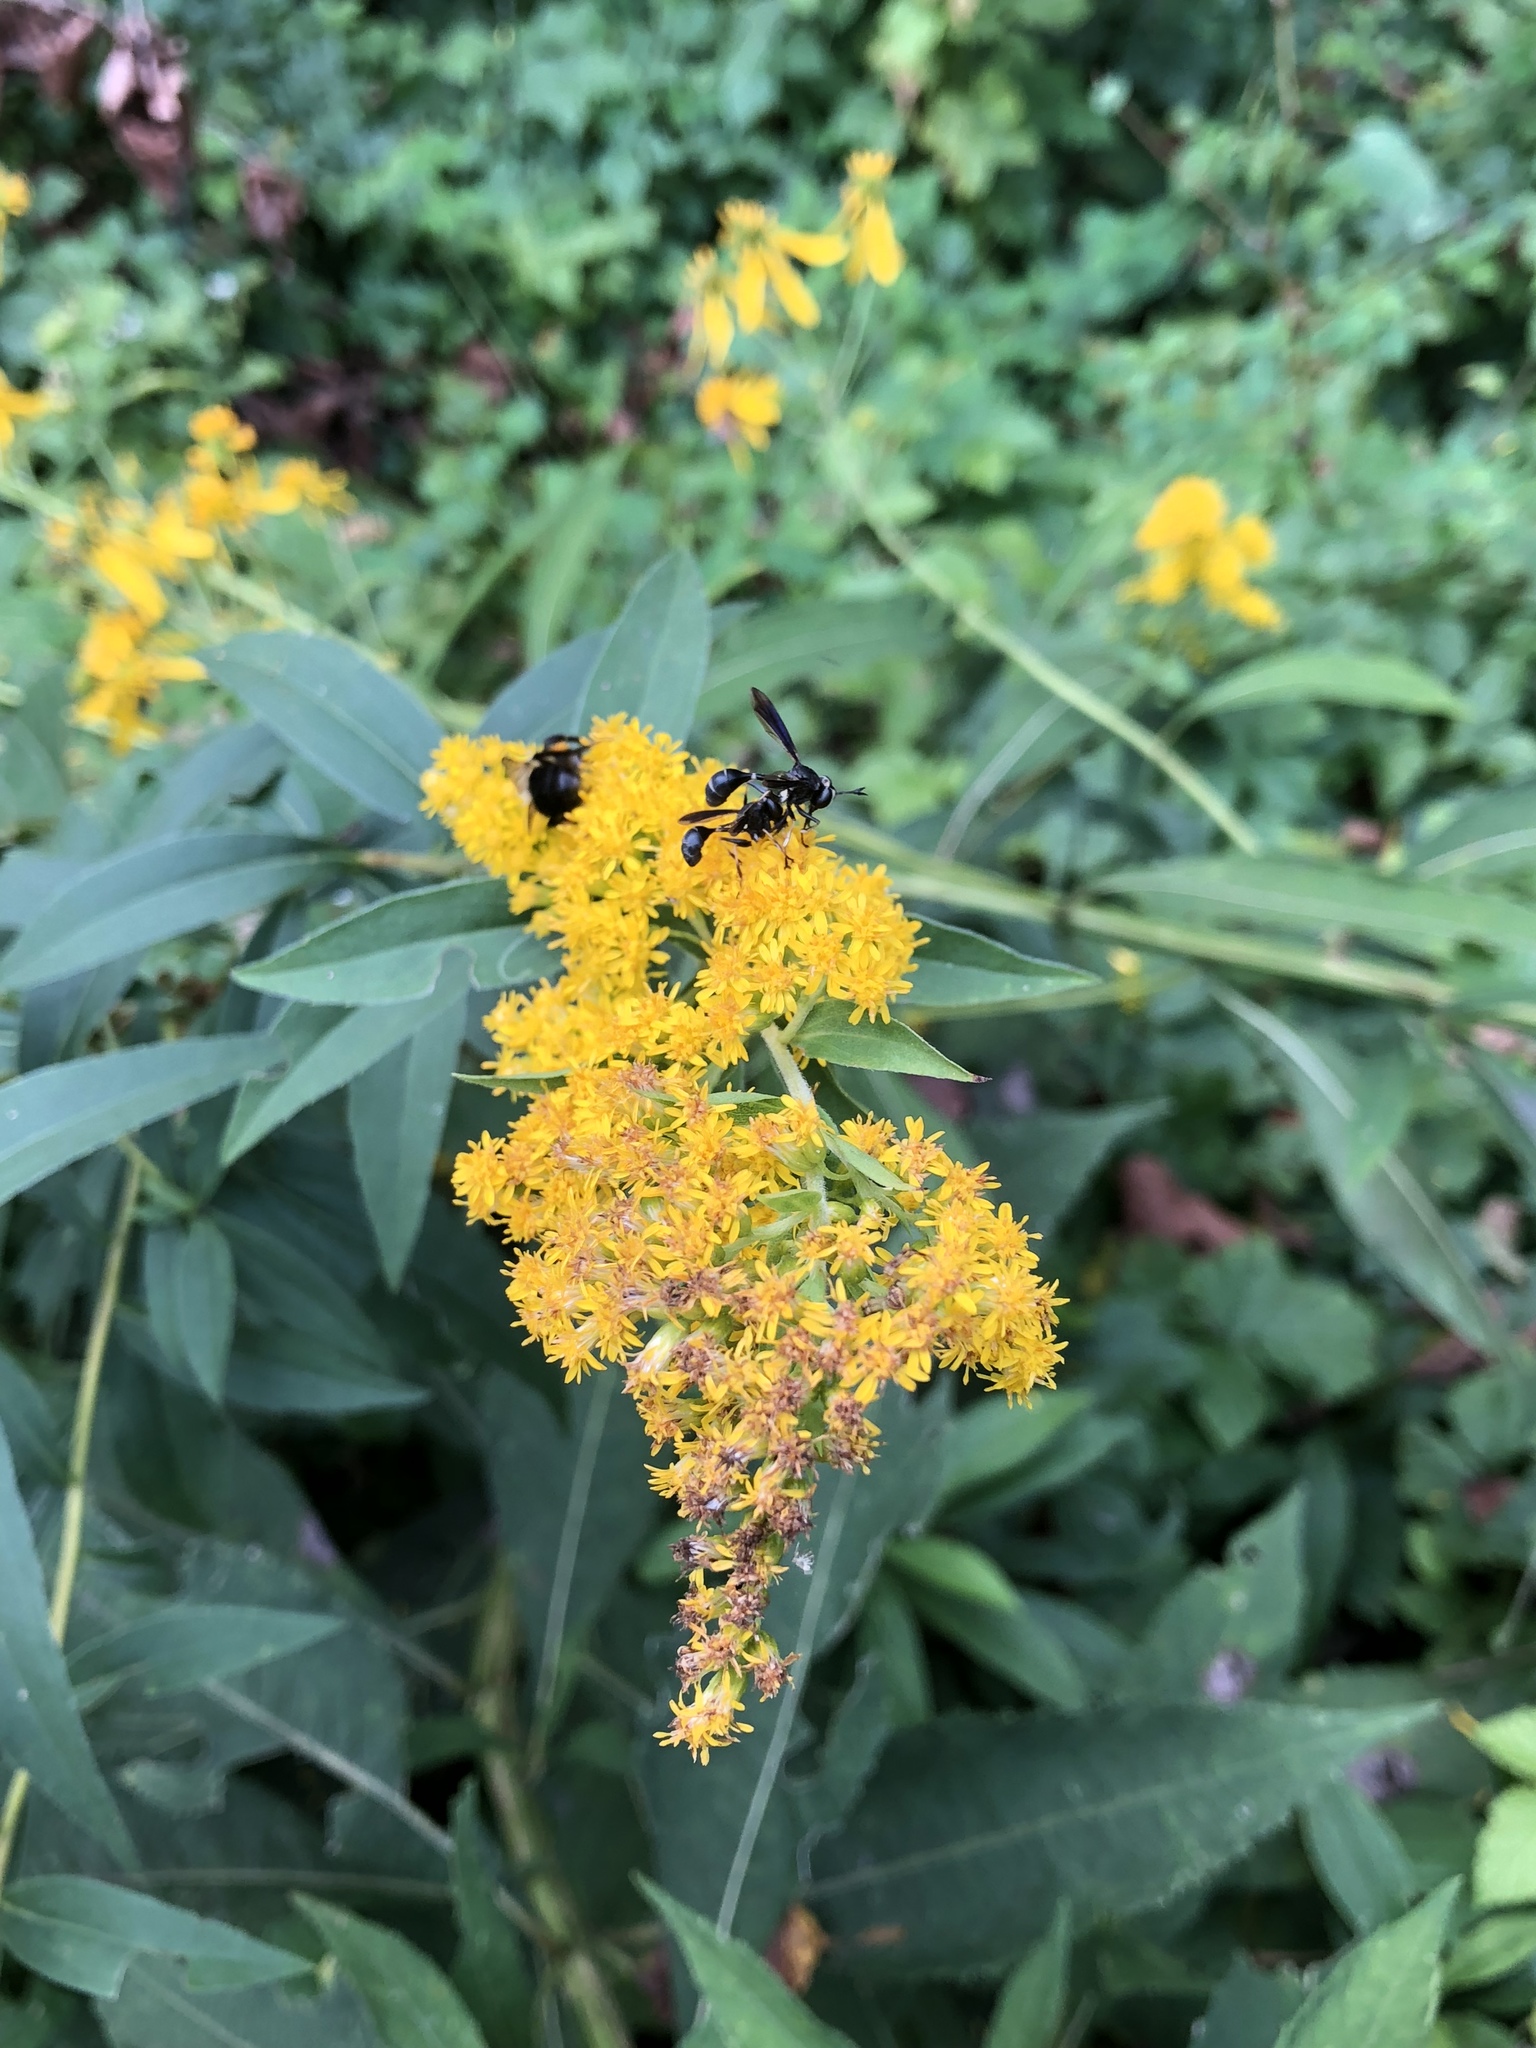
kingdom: Animalia
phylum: Arthropoda
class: Insecta
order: Diptera
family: Conopidae
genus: Physocephala
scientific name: Physocephala tibialis
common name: Common eastern physocephala
